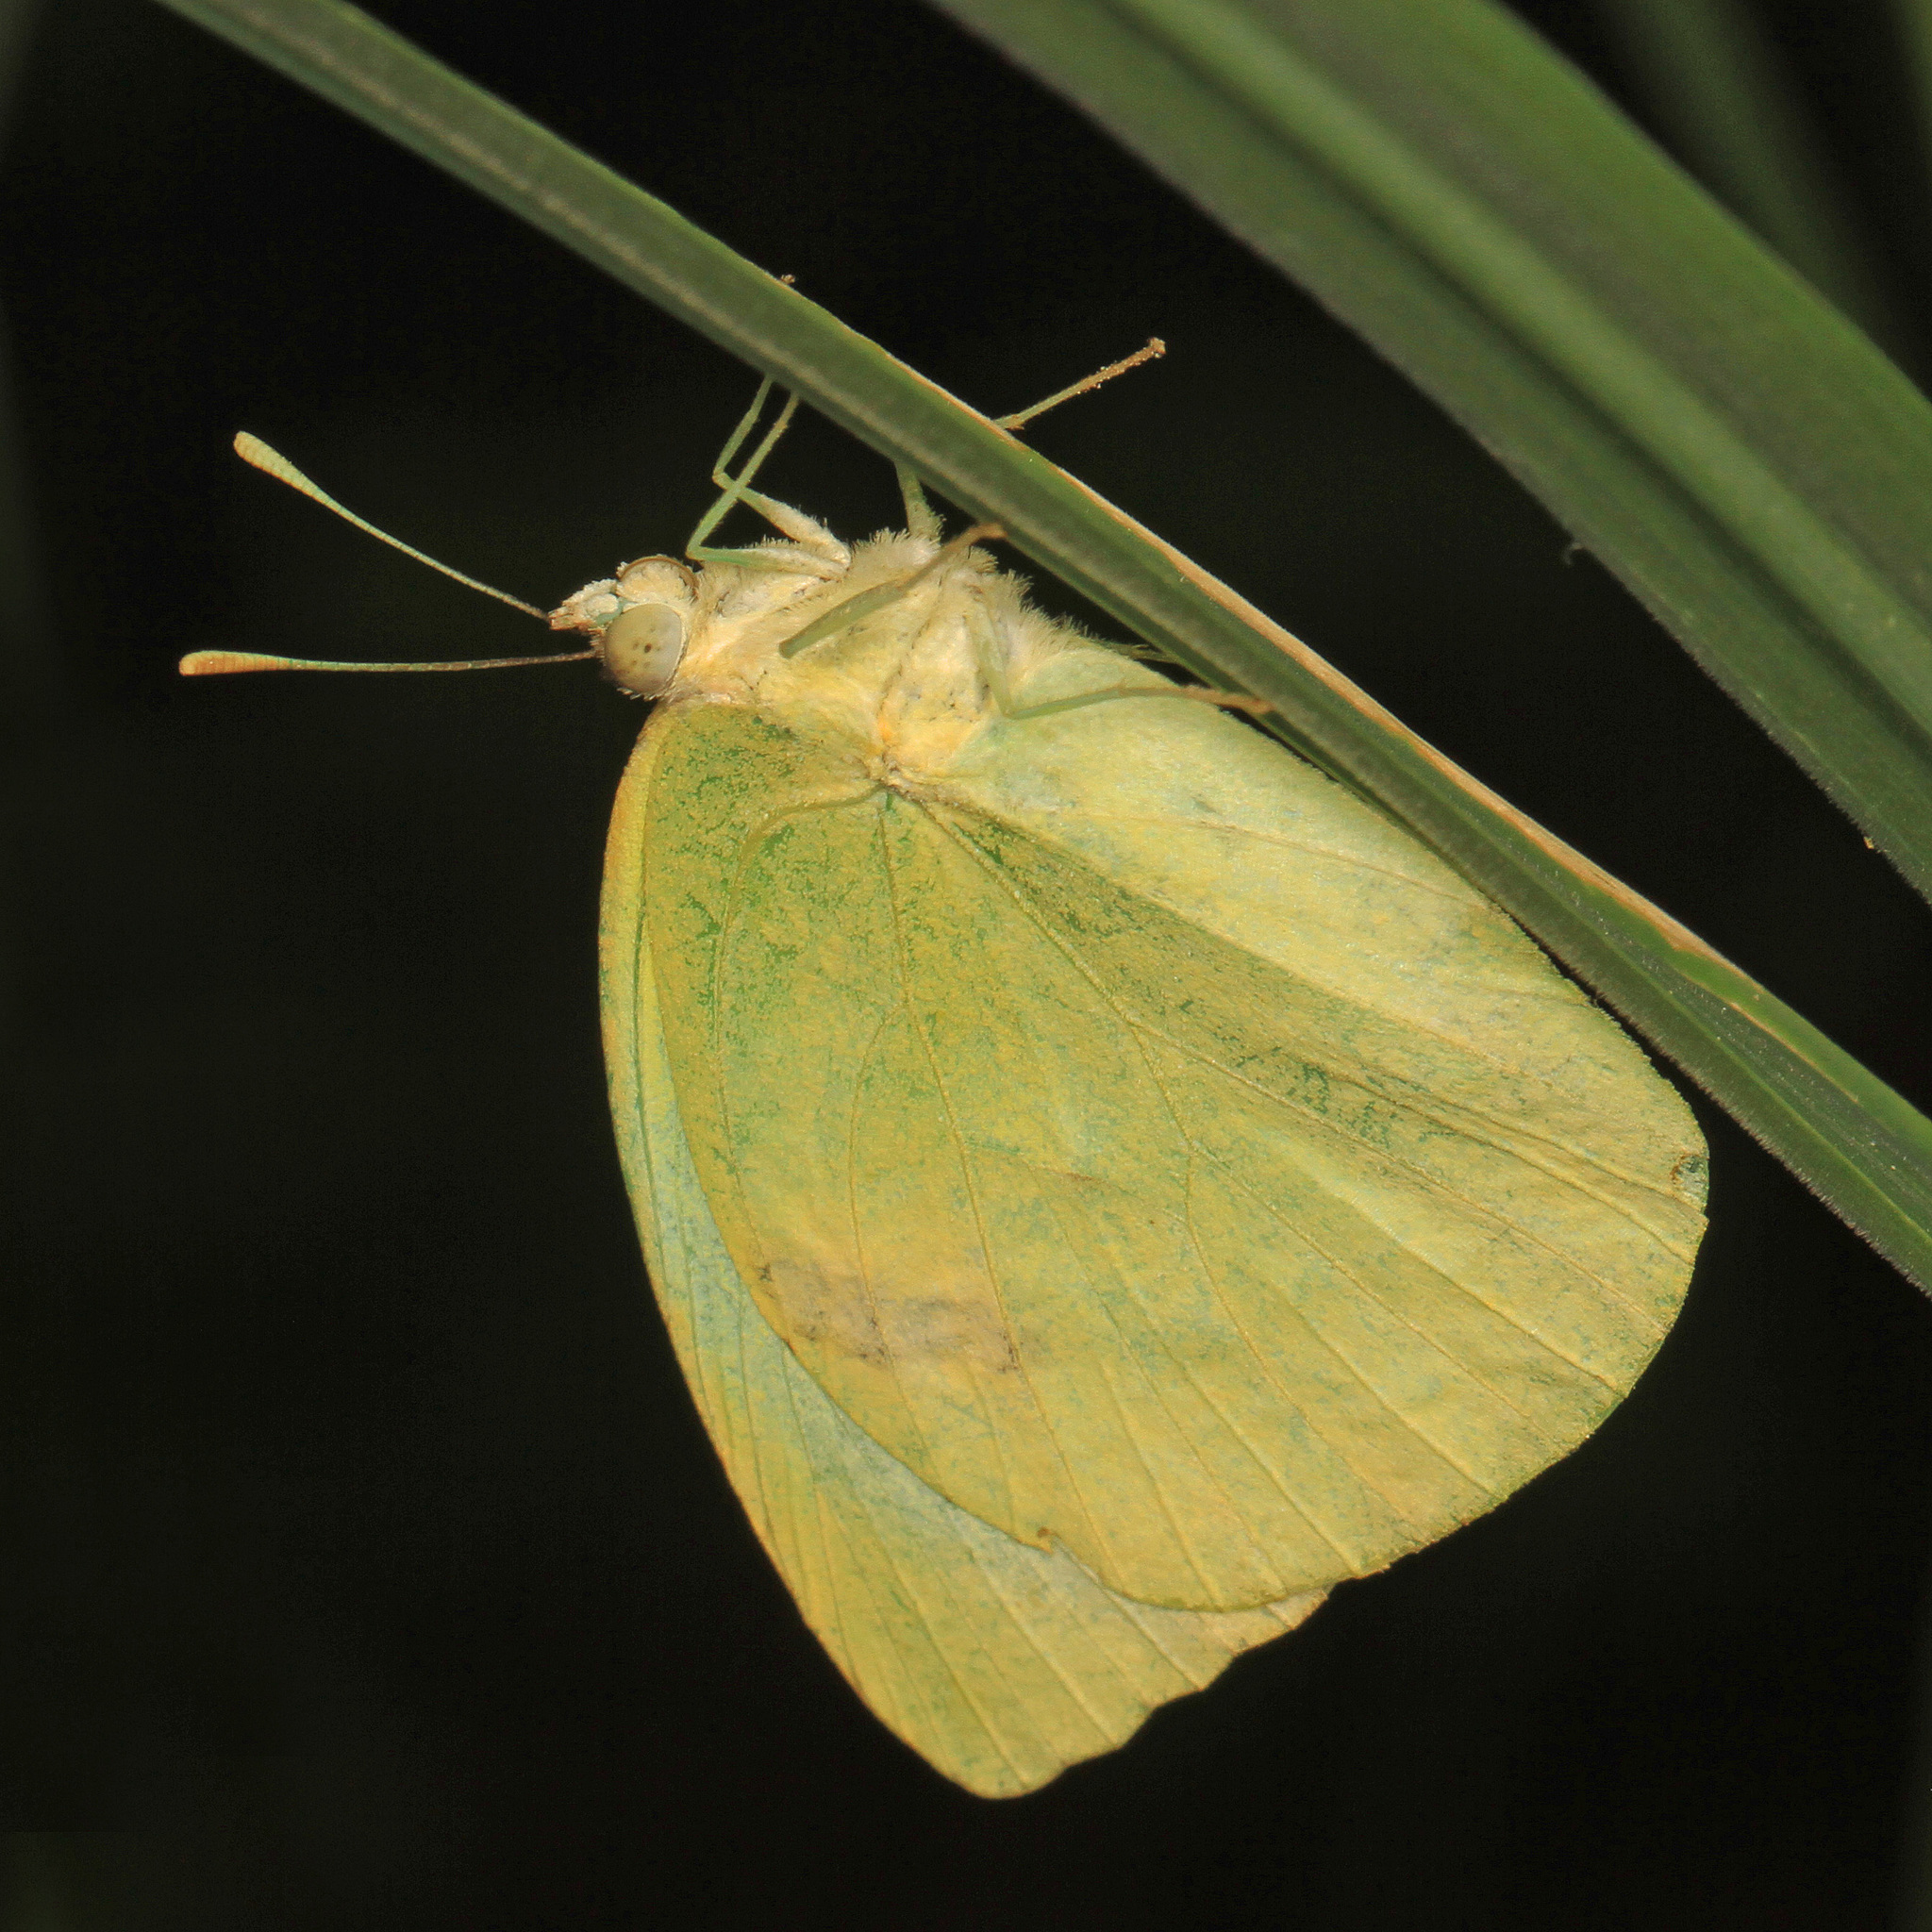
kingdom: Animalia
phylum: Arthropoda
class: Insecta
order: Lepidoptera
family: Pieridae
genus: Kricogonia
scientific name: Kricogonia lyside
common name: Guayacan sulphur,
